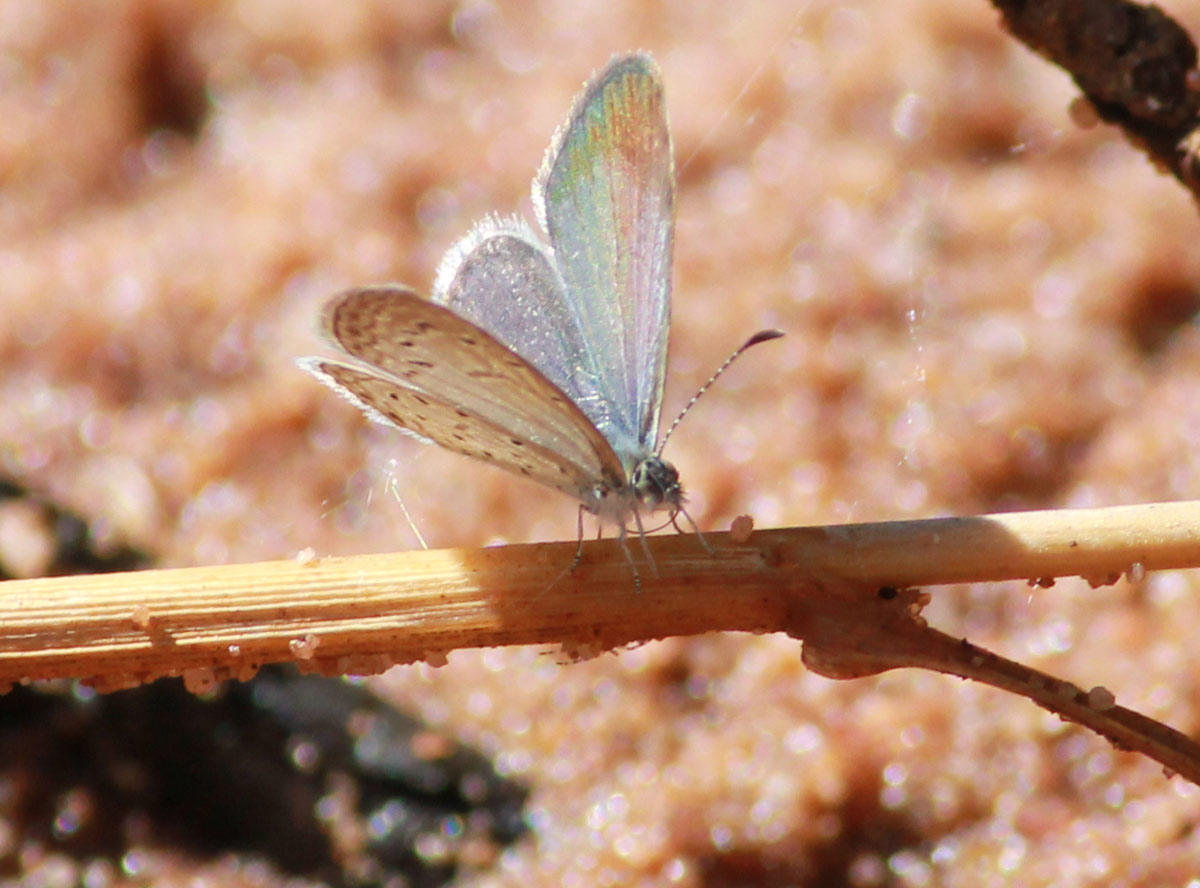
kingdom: Animalia
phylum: Arthropoda
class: Insecta
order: Lepidoptera
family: Lycaenidae
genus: Zizula
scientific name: Zizula hylax
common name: Gaika blue
